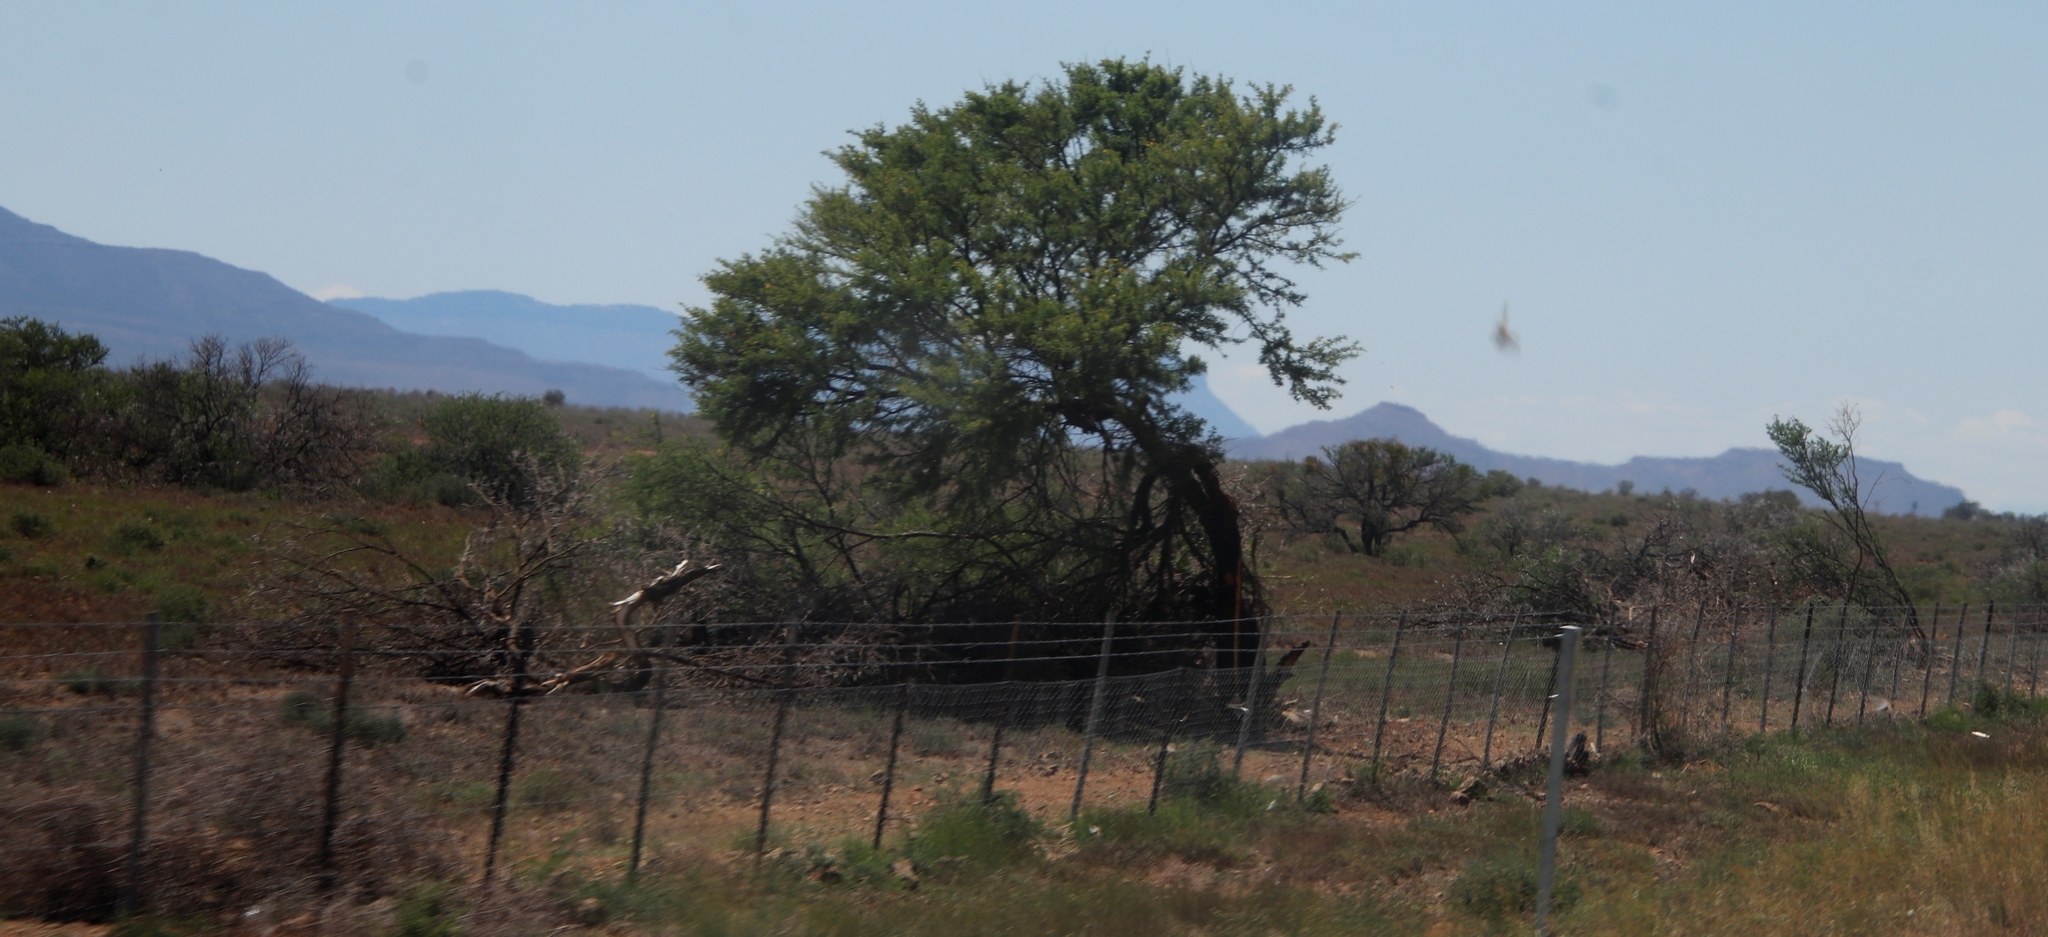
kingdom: Plantae
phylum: Tracheophyta
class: Magnoliopsida
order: Fabales
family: Fabaceae
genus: Vachellia
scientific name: Vachellia karroo
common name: Sweet thorn
